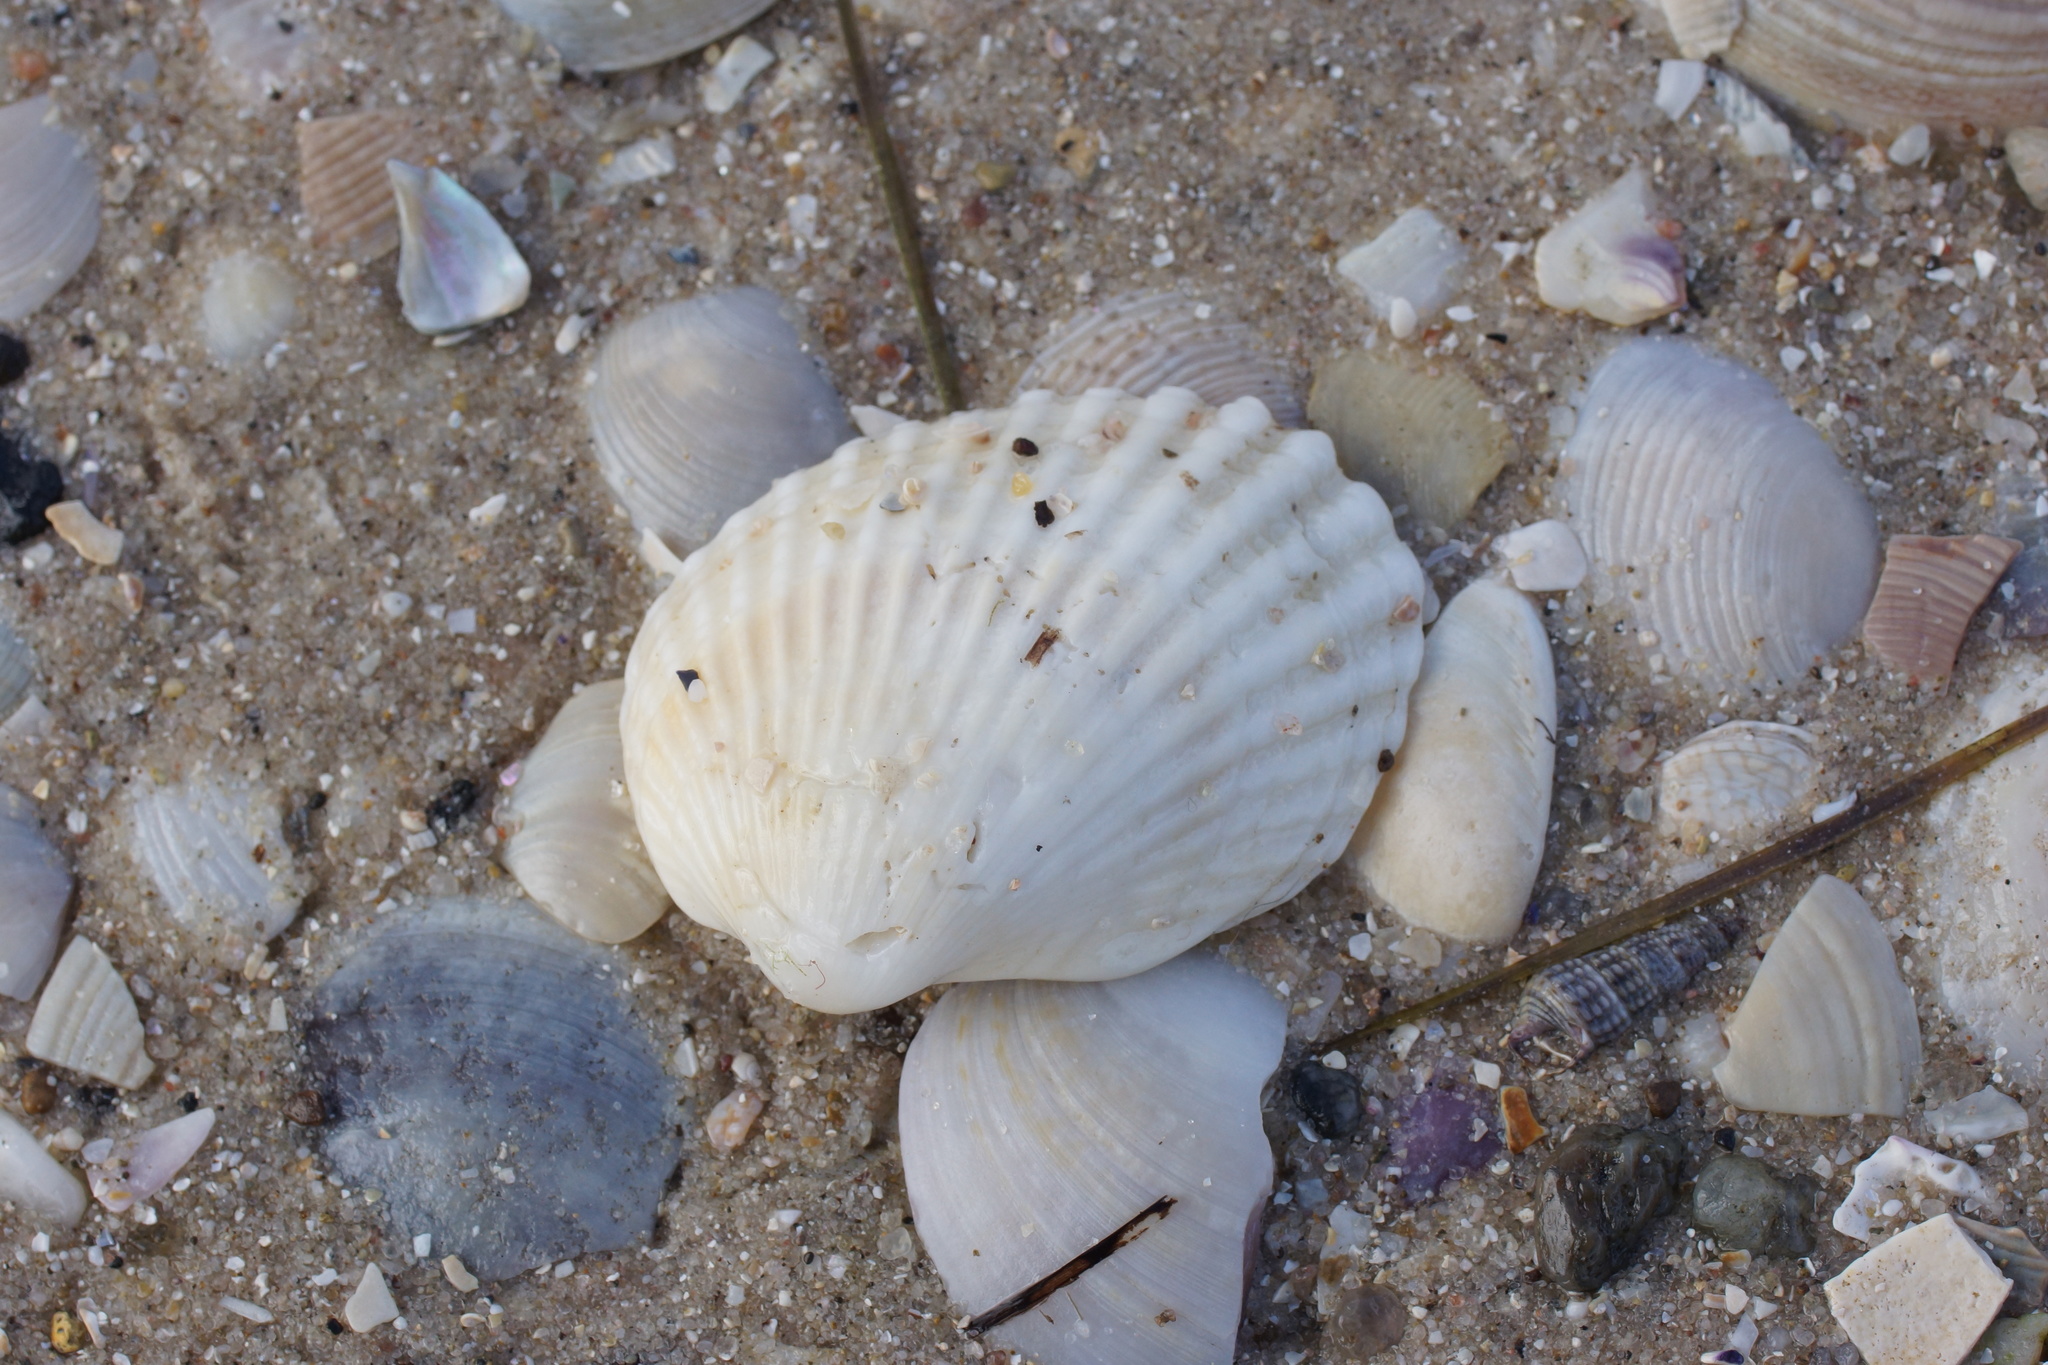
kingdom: Animalia
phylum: Mollusca
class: Bivalvia
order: Arcida
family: Arcidae
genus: Anadara
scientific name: Anadara trapezia
